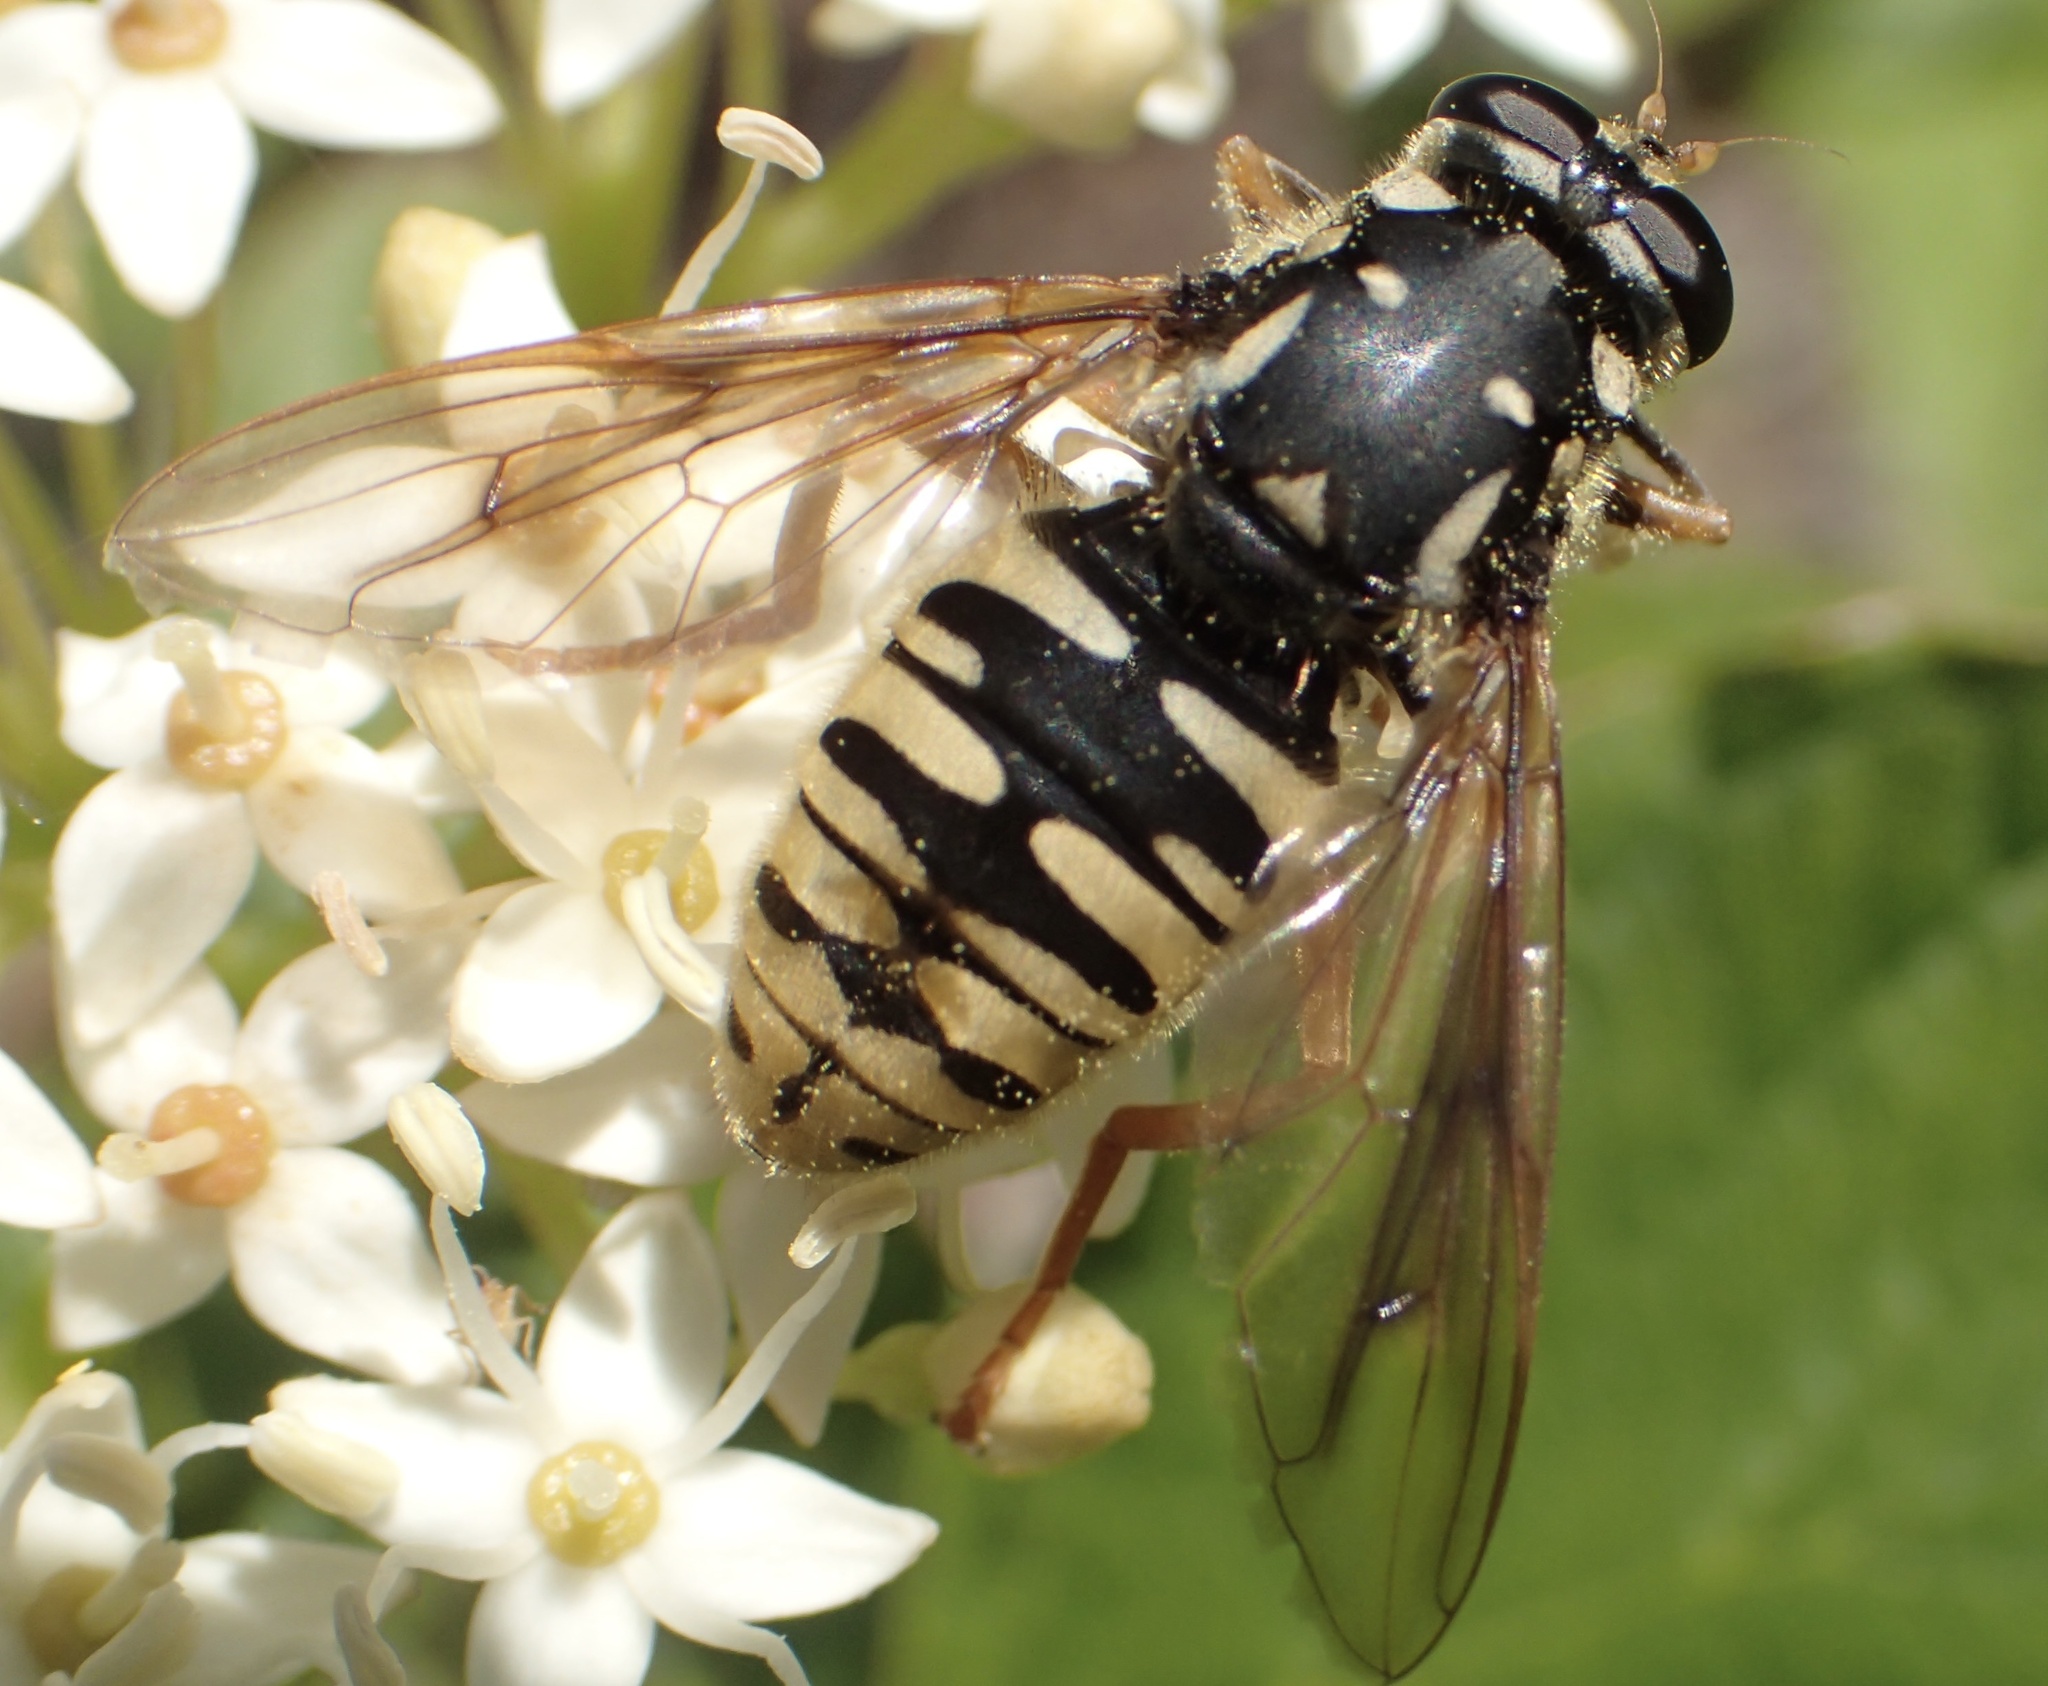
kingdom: Animalia
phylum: Arthropoda
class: Insecta
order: Diptera
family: Syrphidae
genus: Temnostoma
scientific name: Temnostoma alternans
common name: Wasp-like falsehorn
